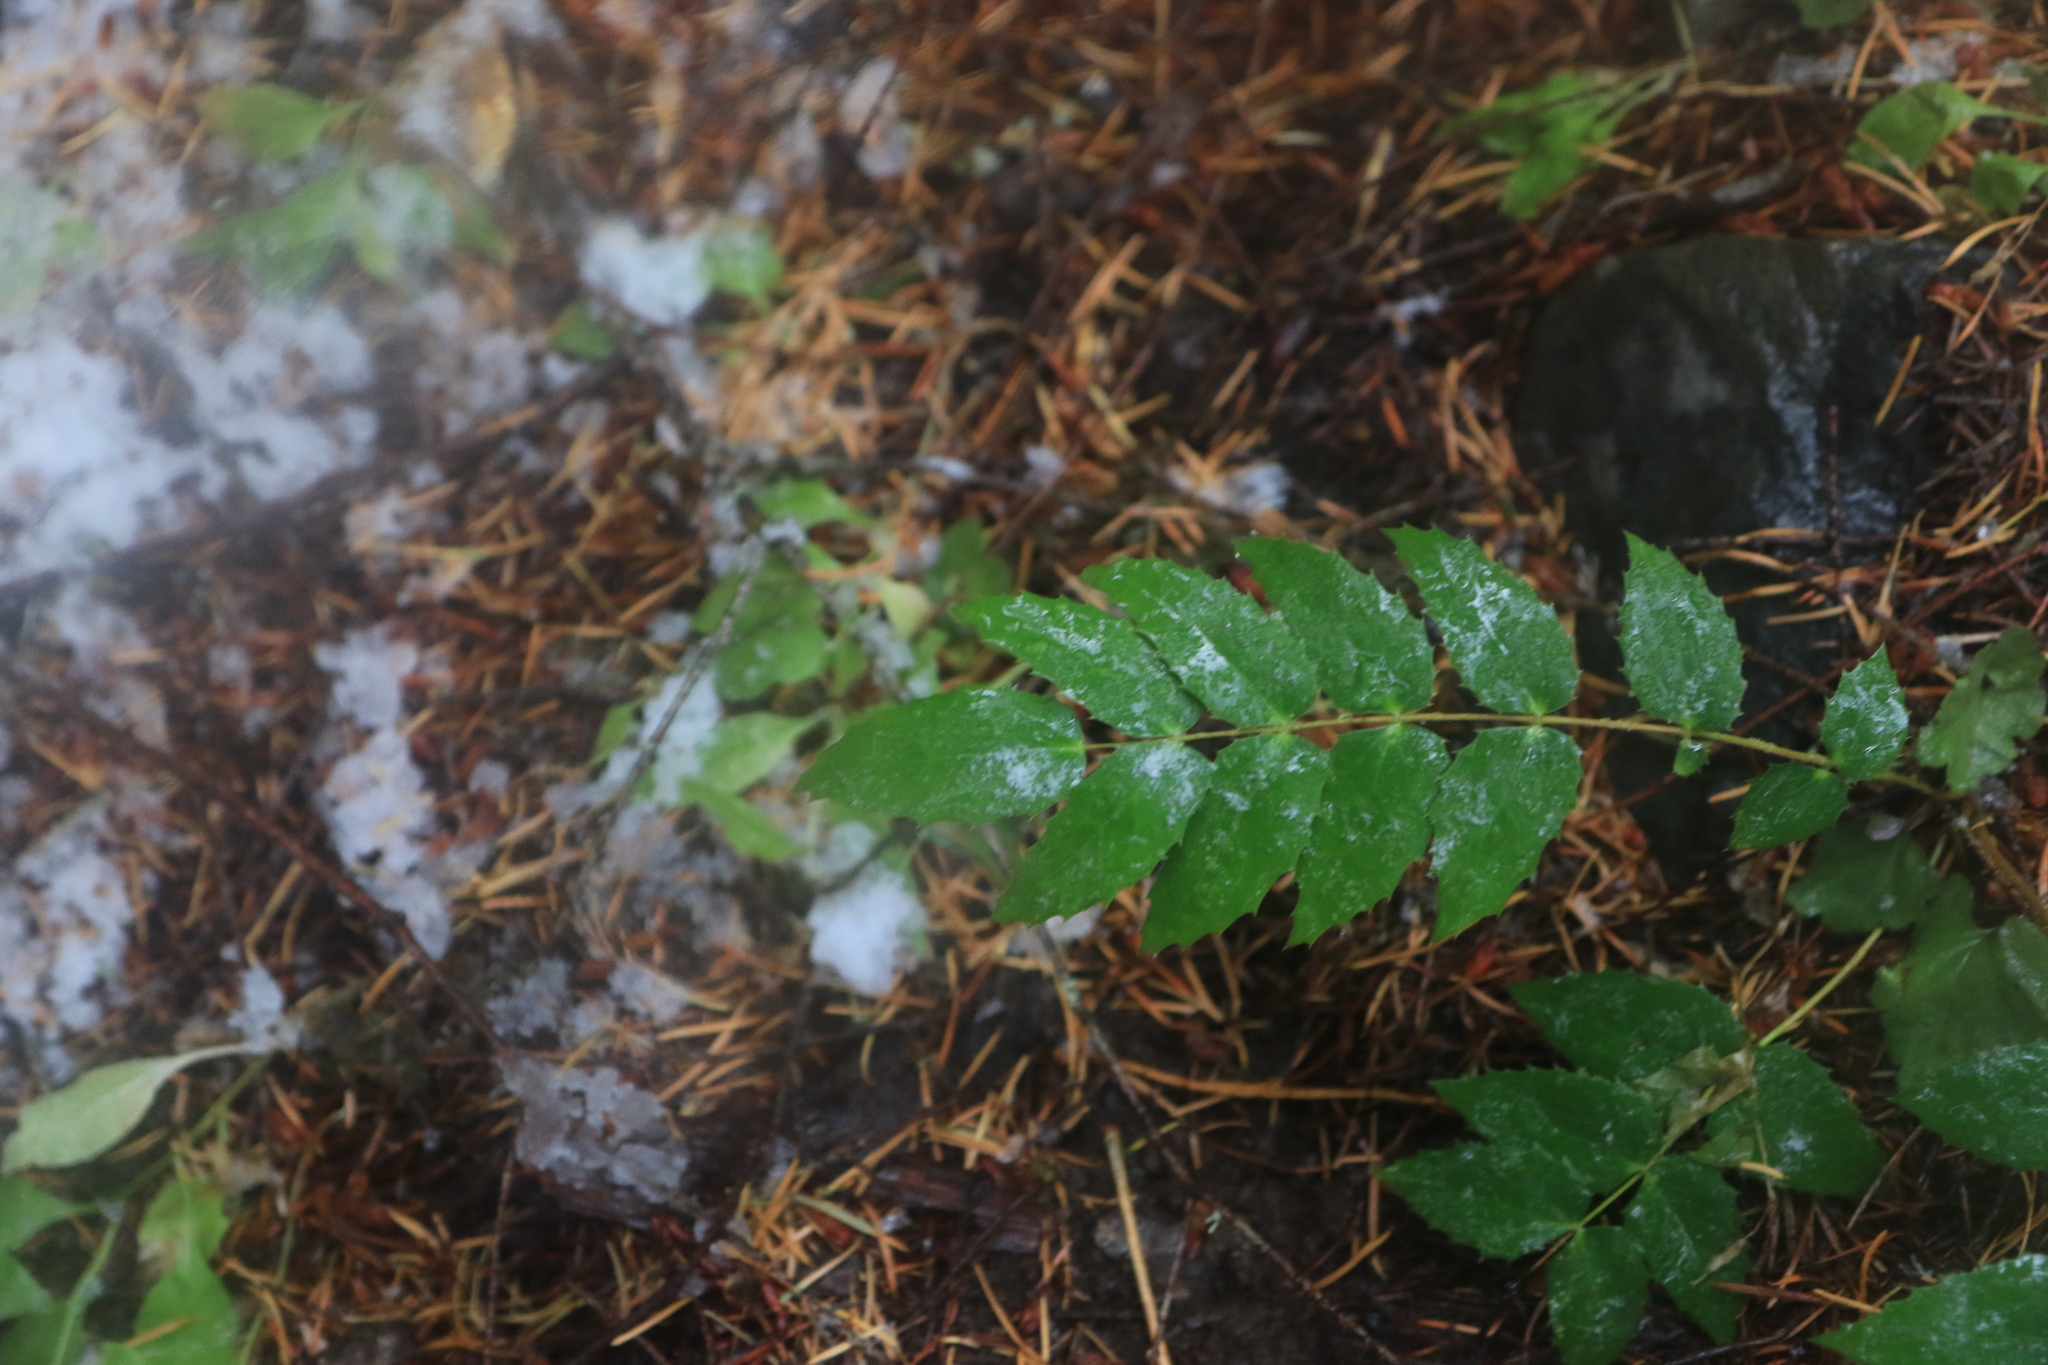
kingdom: Plantae
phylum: Tracheophyta
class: Magnoliopsida
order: Ranunculales
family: Berberidaceae
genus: Mahonia
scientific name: Mahonia nervosa
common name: Cascade oregon-grape
